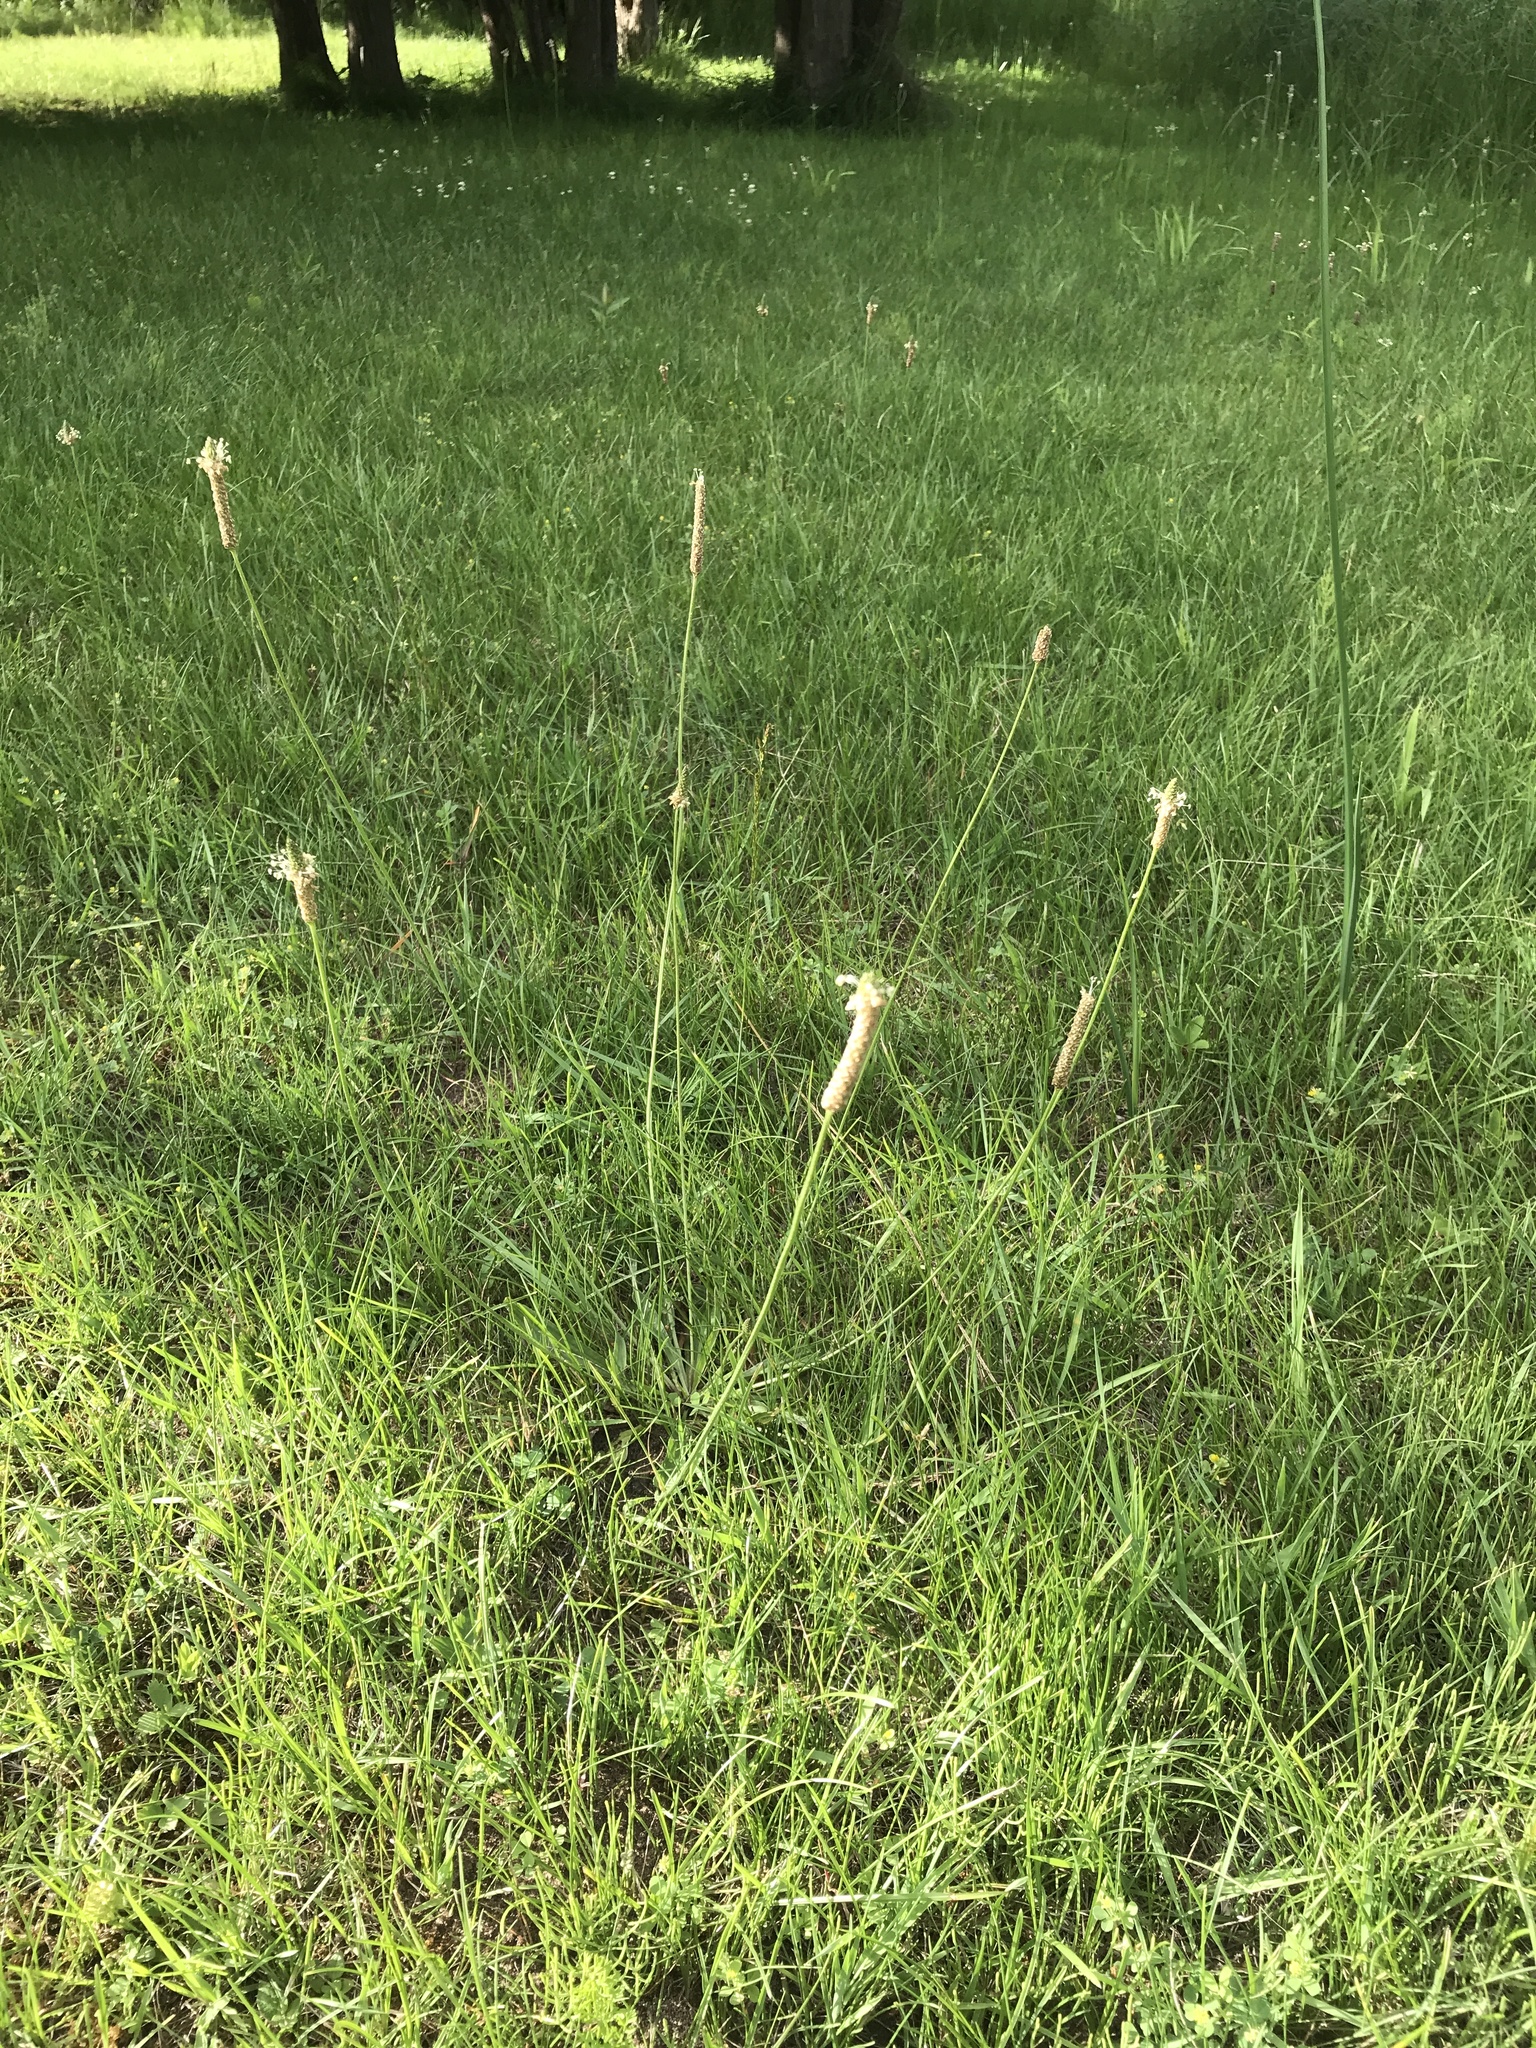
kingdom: Plantae
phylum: Tracheophyta
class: Magnoliopsida
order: Lamiales
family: Plantaginaceae
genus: Plantago
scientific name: Plantago lanceolata
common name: Ribwort plantain
